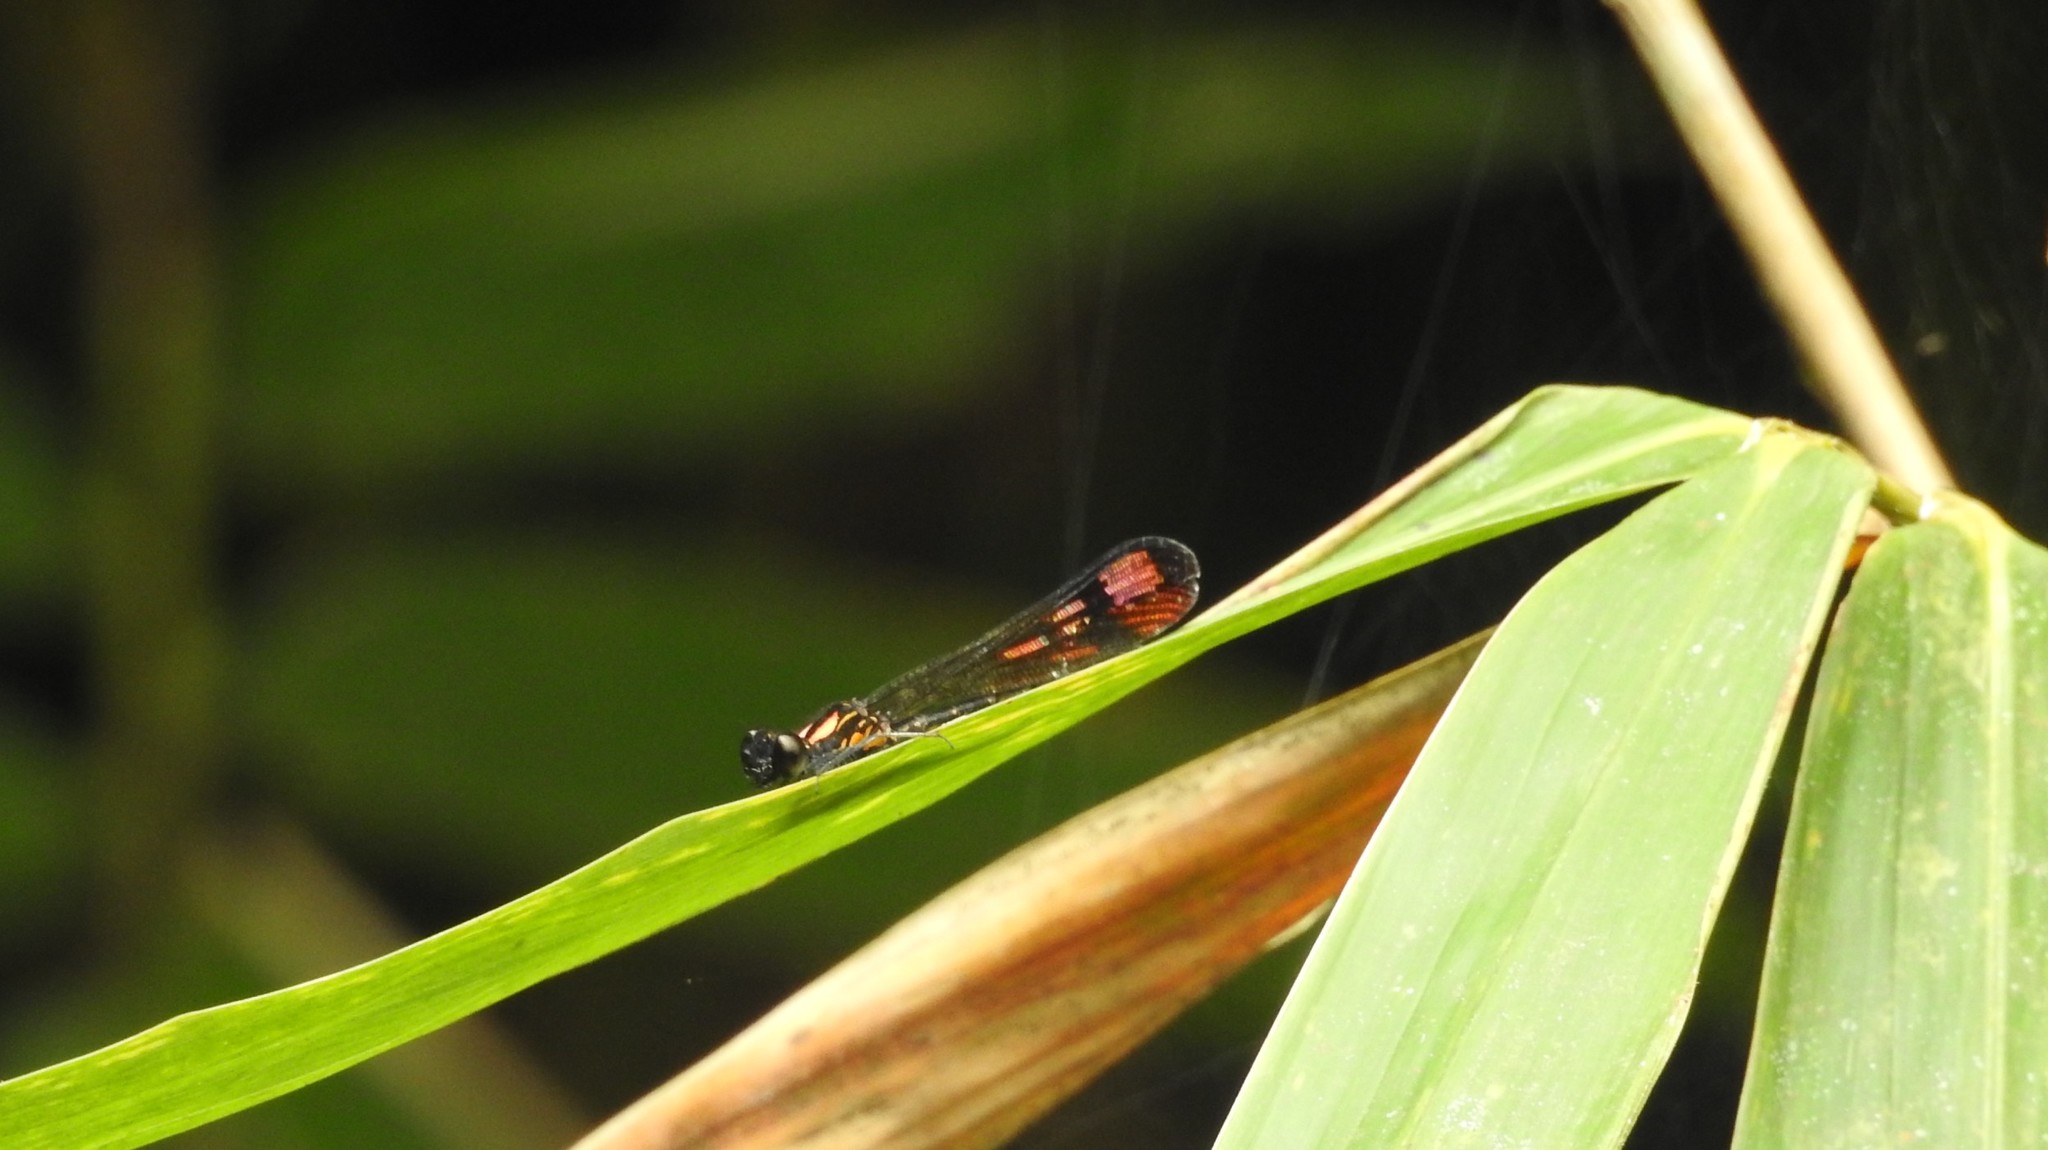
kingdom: Animalia
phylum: Arthropoda
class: Insecta
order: Odonata
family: Chlorocyphidae
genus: Heliocypha
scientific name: Heliocypha bisignata
